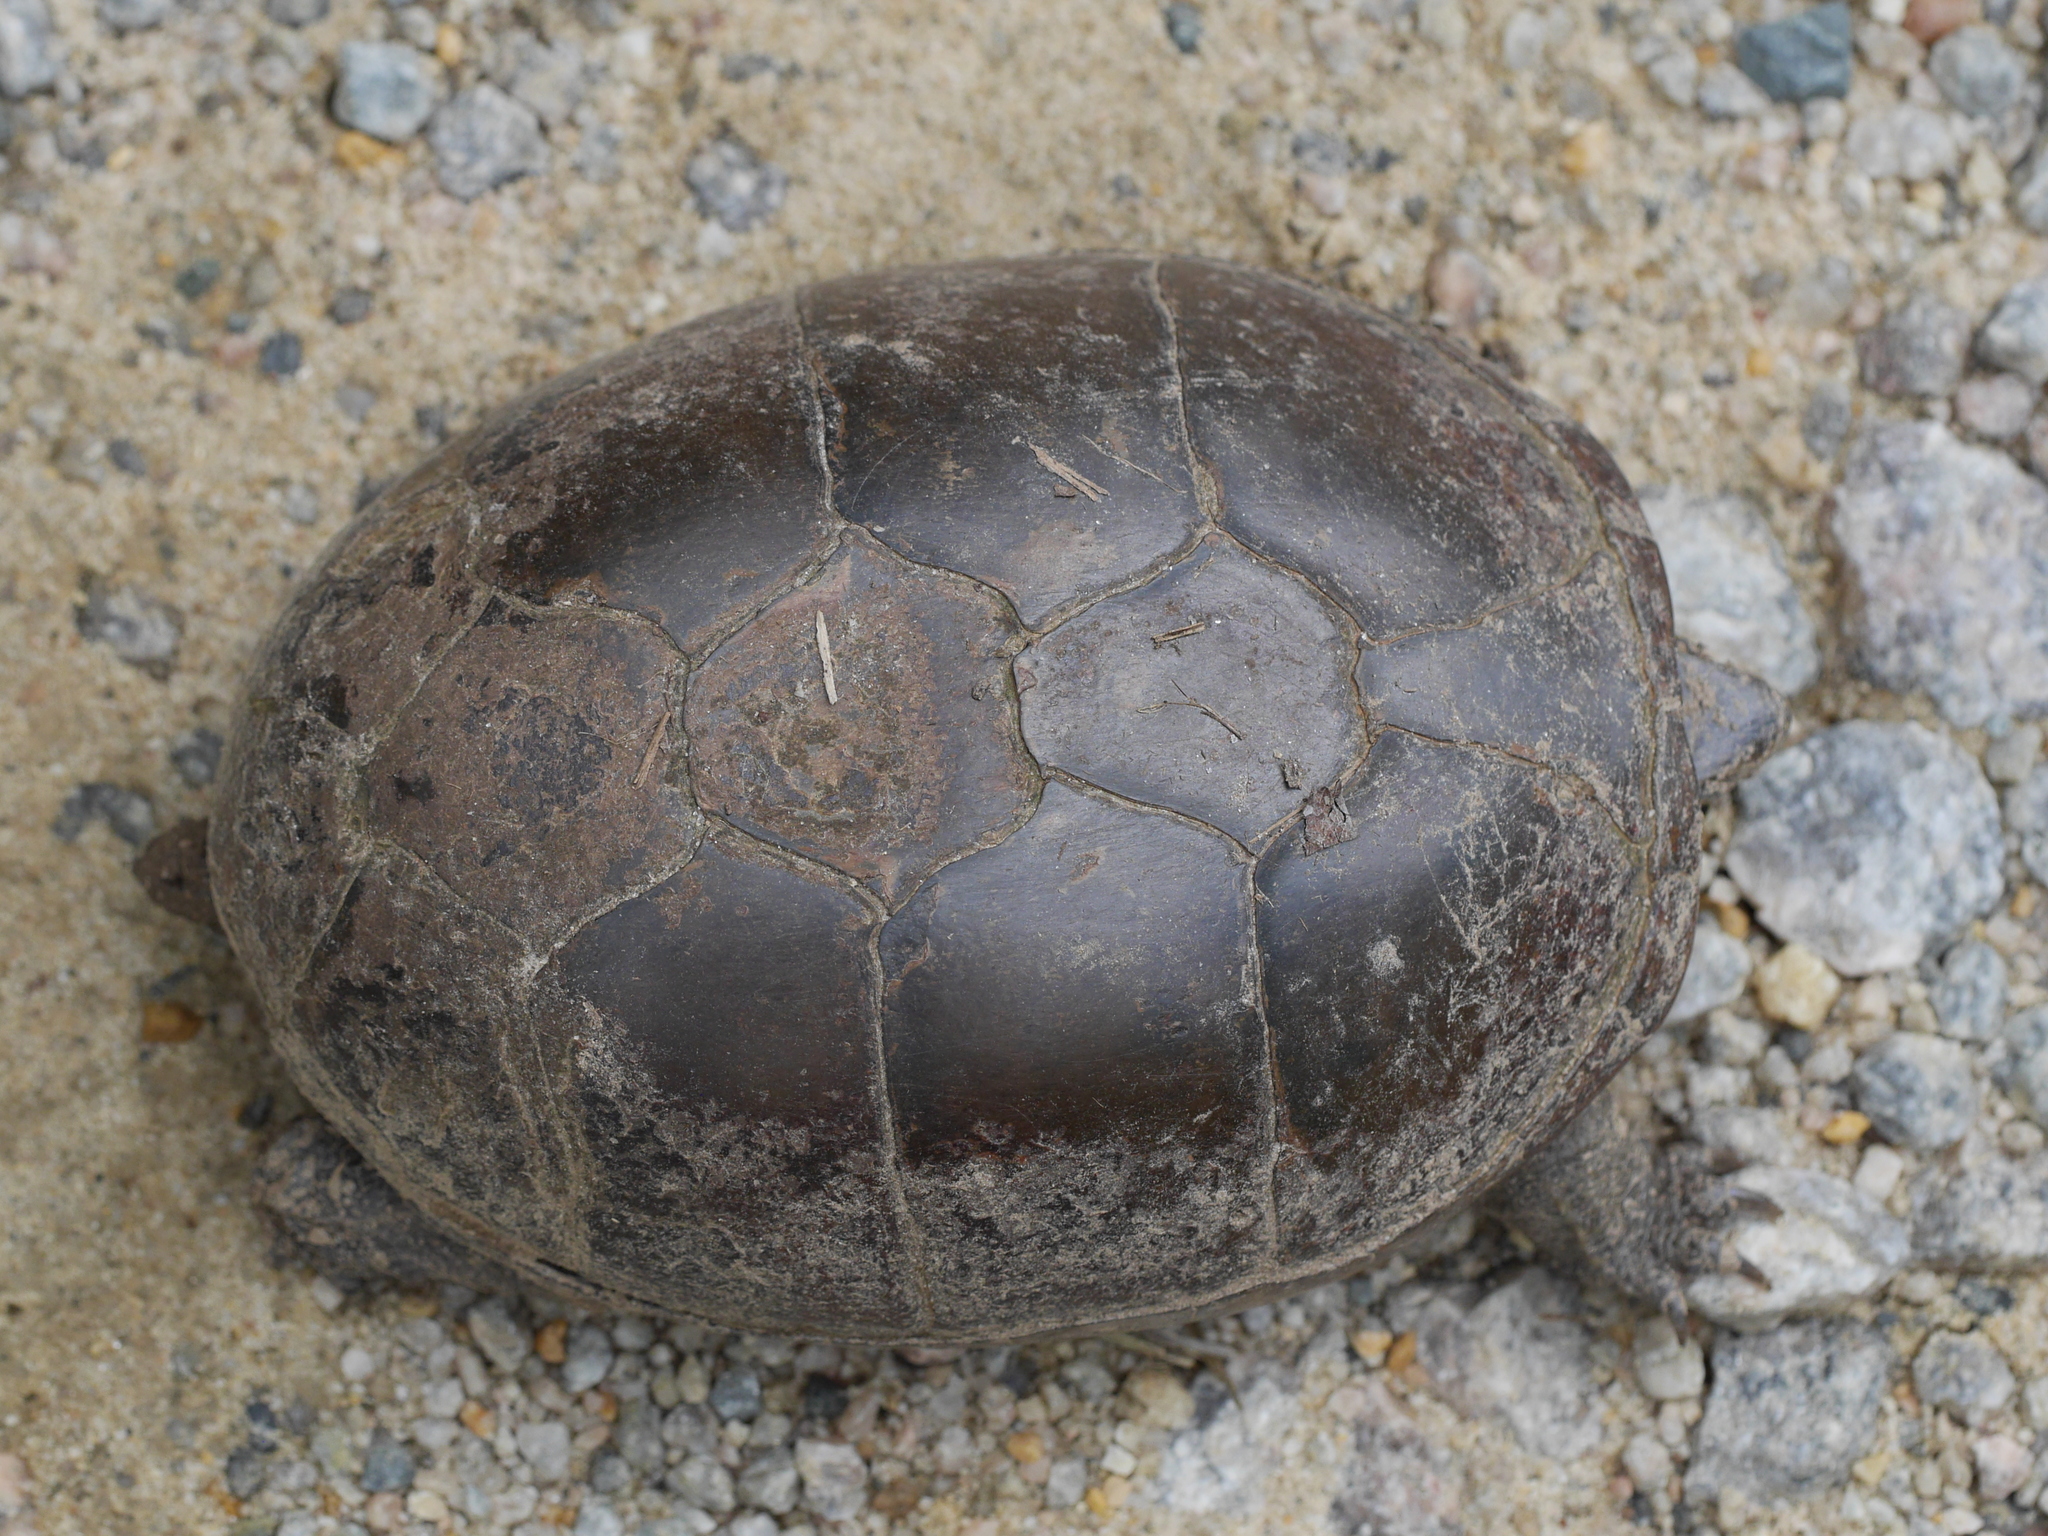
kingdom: Animalia
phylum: Chordata
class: Testudines
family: Kinosternidae
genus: Kinosternon
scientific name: Kinosternon subrubrum
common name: Eastern mud turtle
